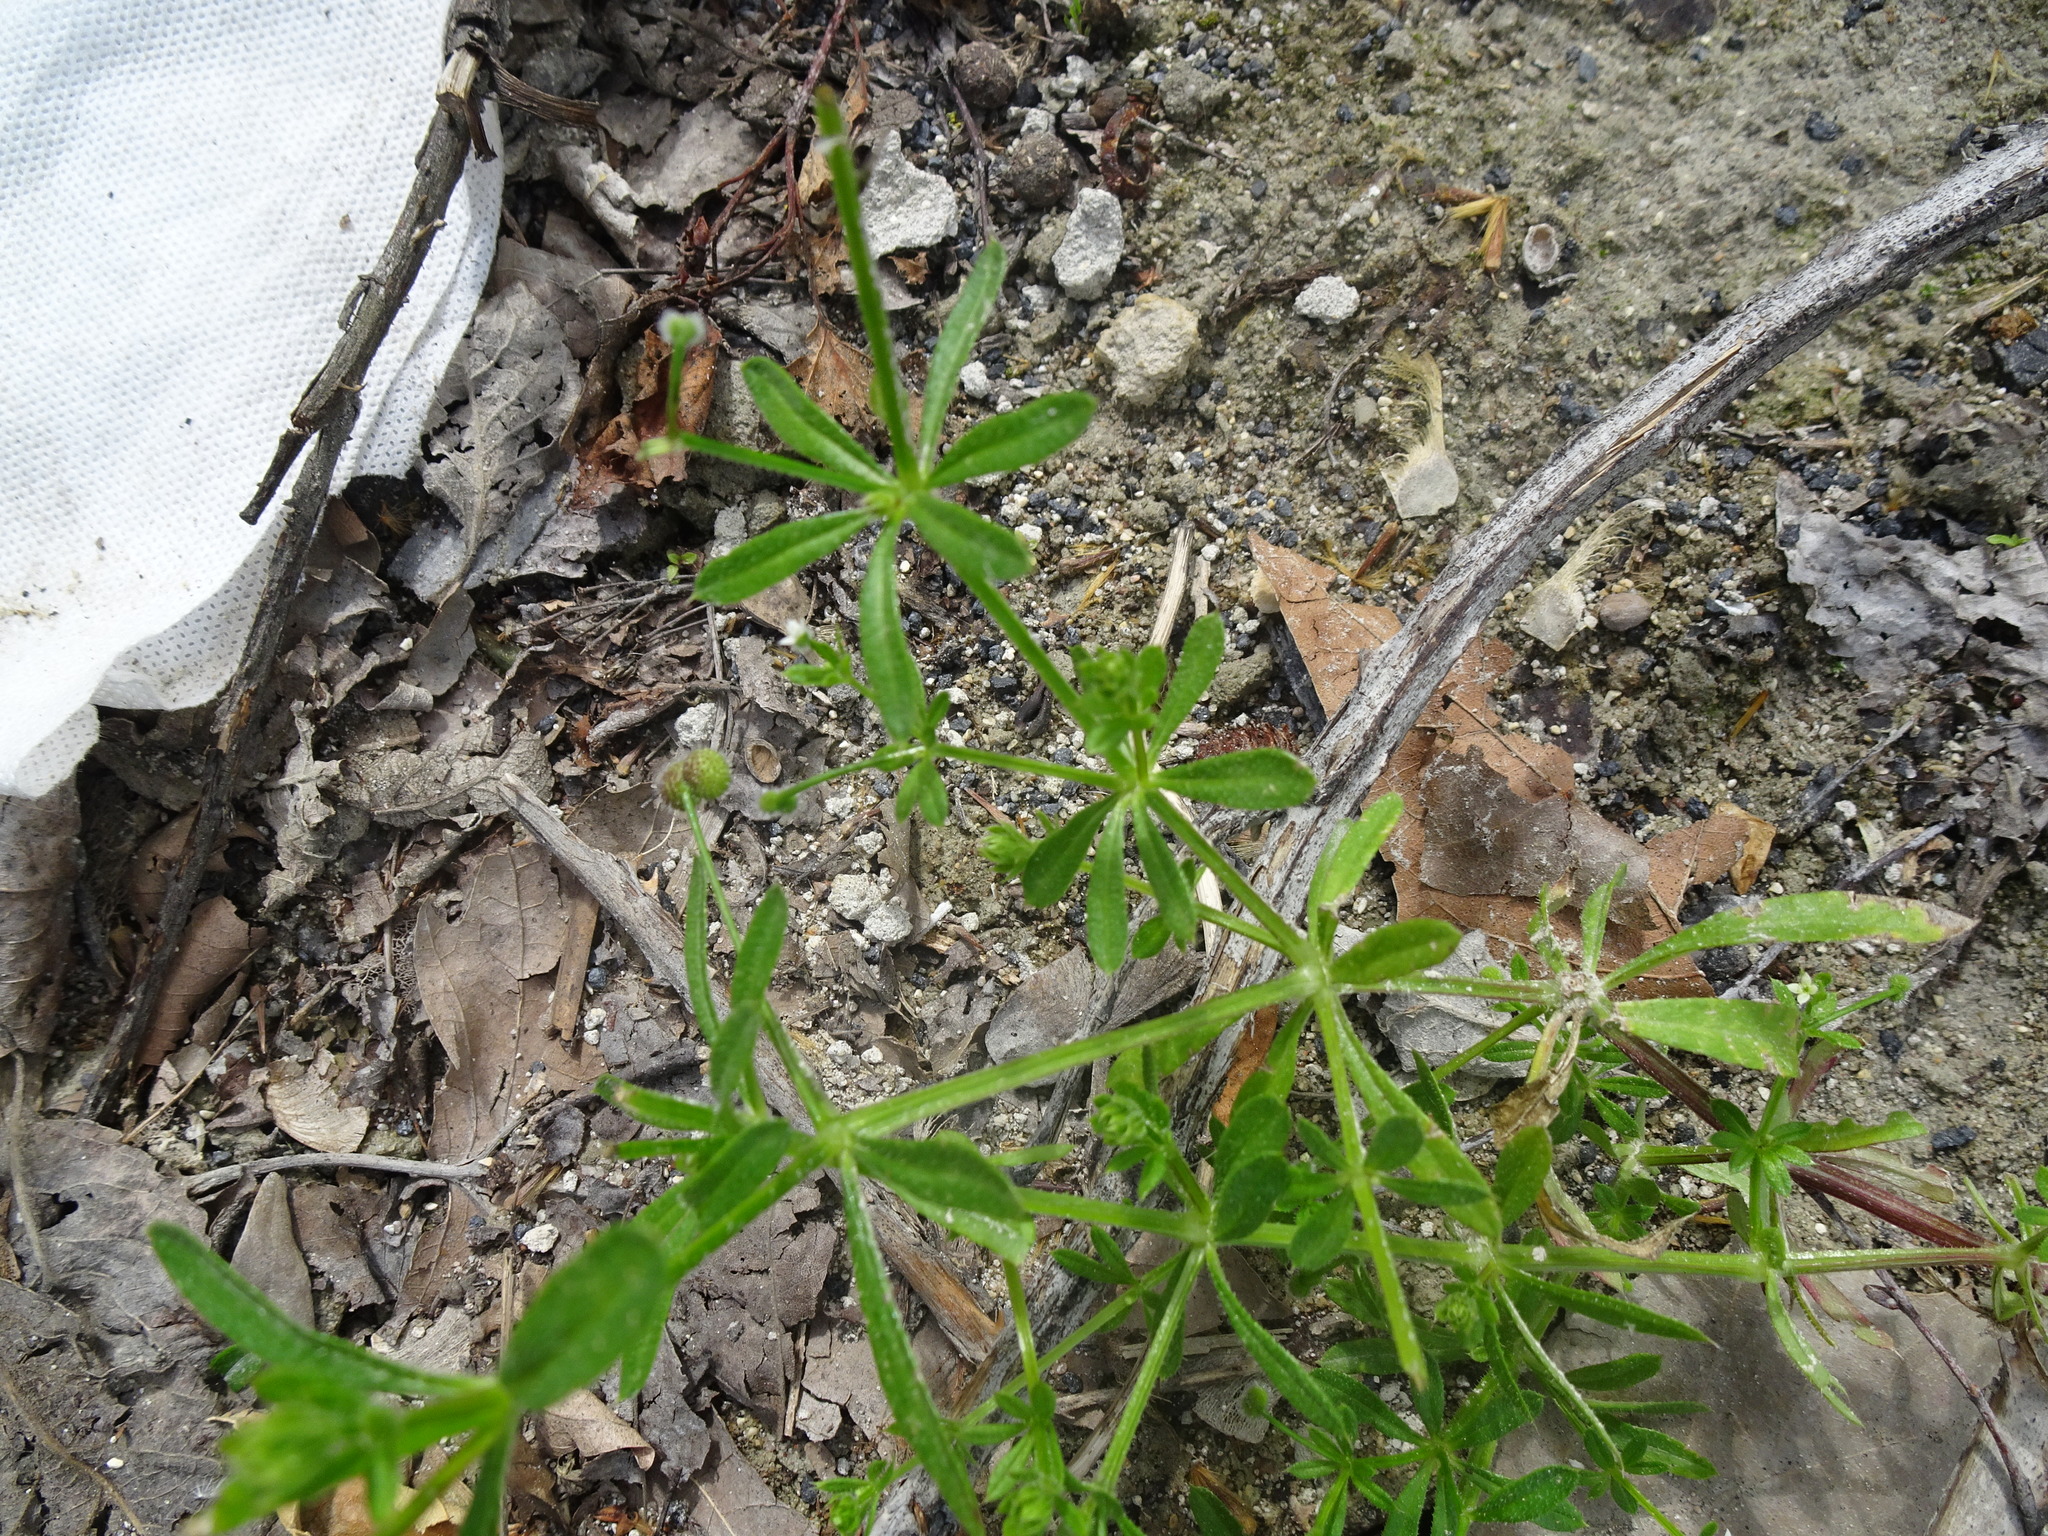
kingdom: Plantae
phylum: Tracheophyta
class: Magnoliopsida
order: Gentianales
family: Rubiaceae
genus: Galium
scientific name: Galium aparine
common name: Cleavers
